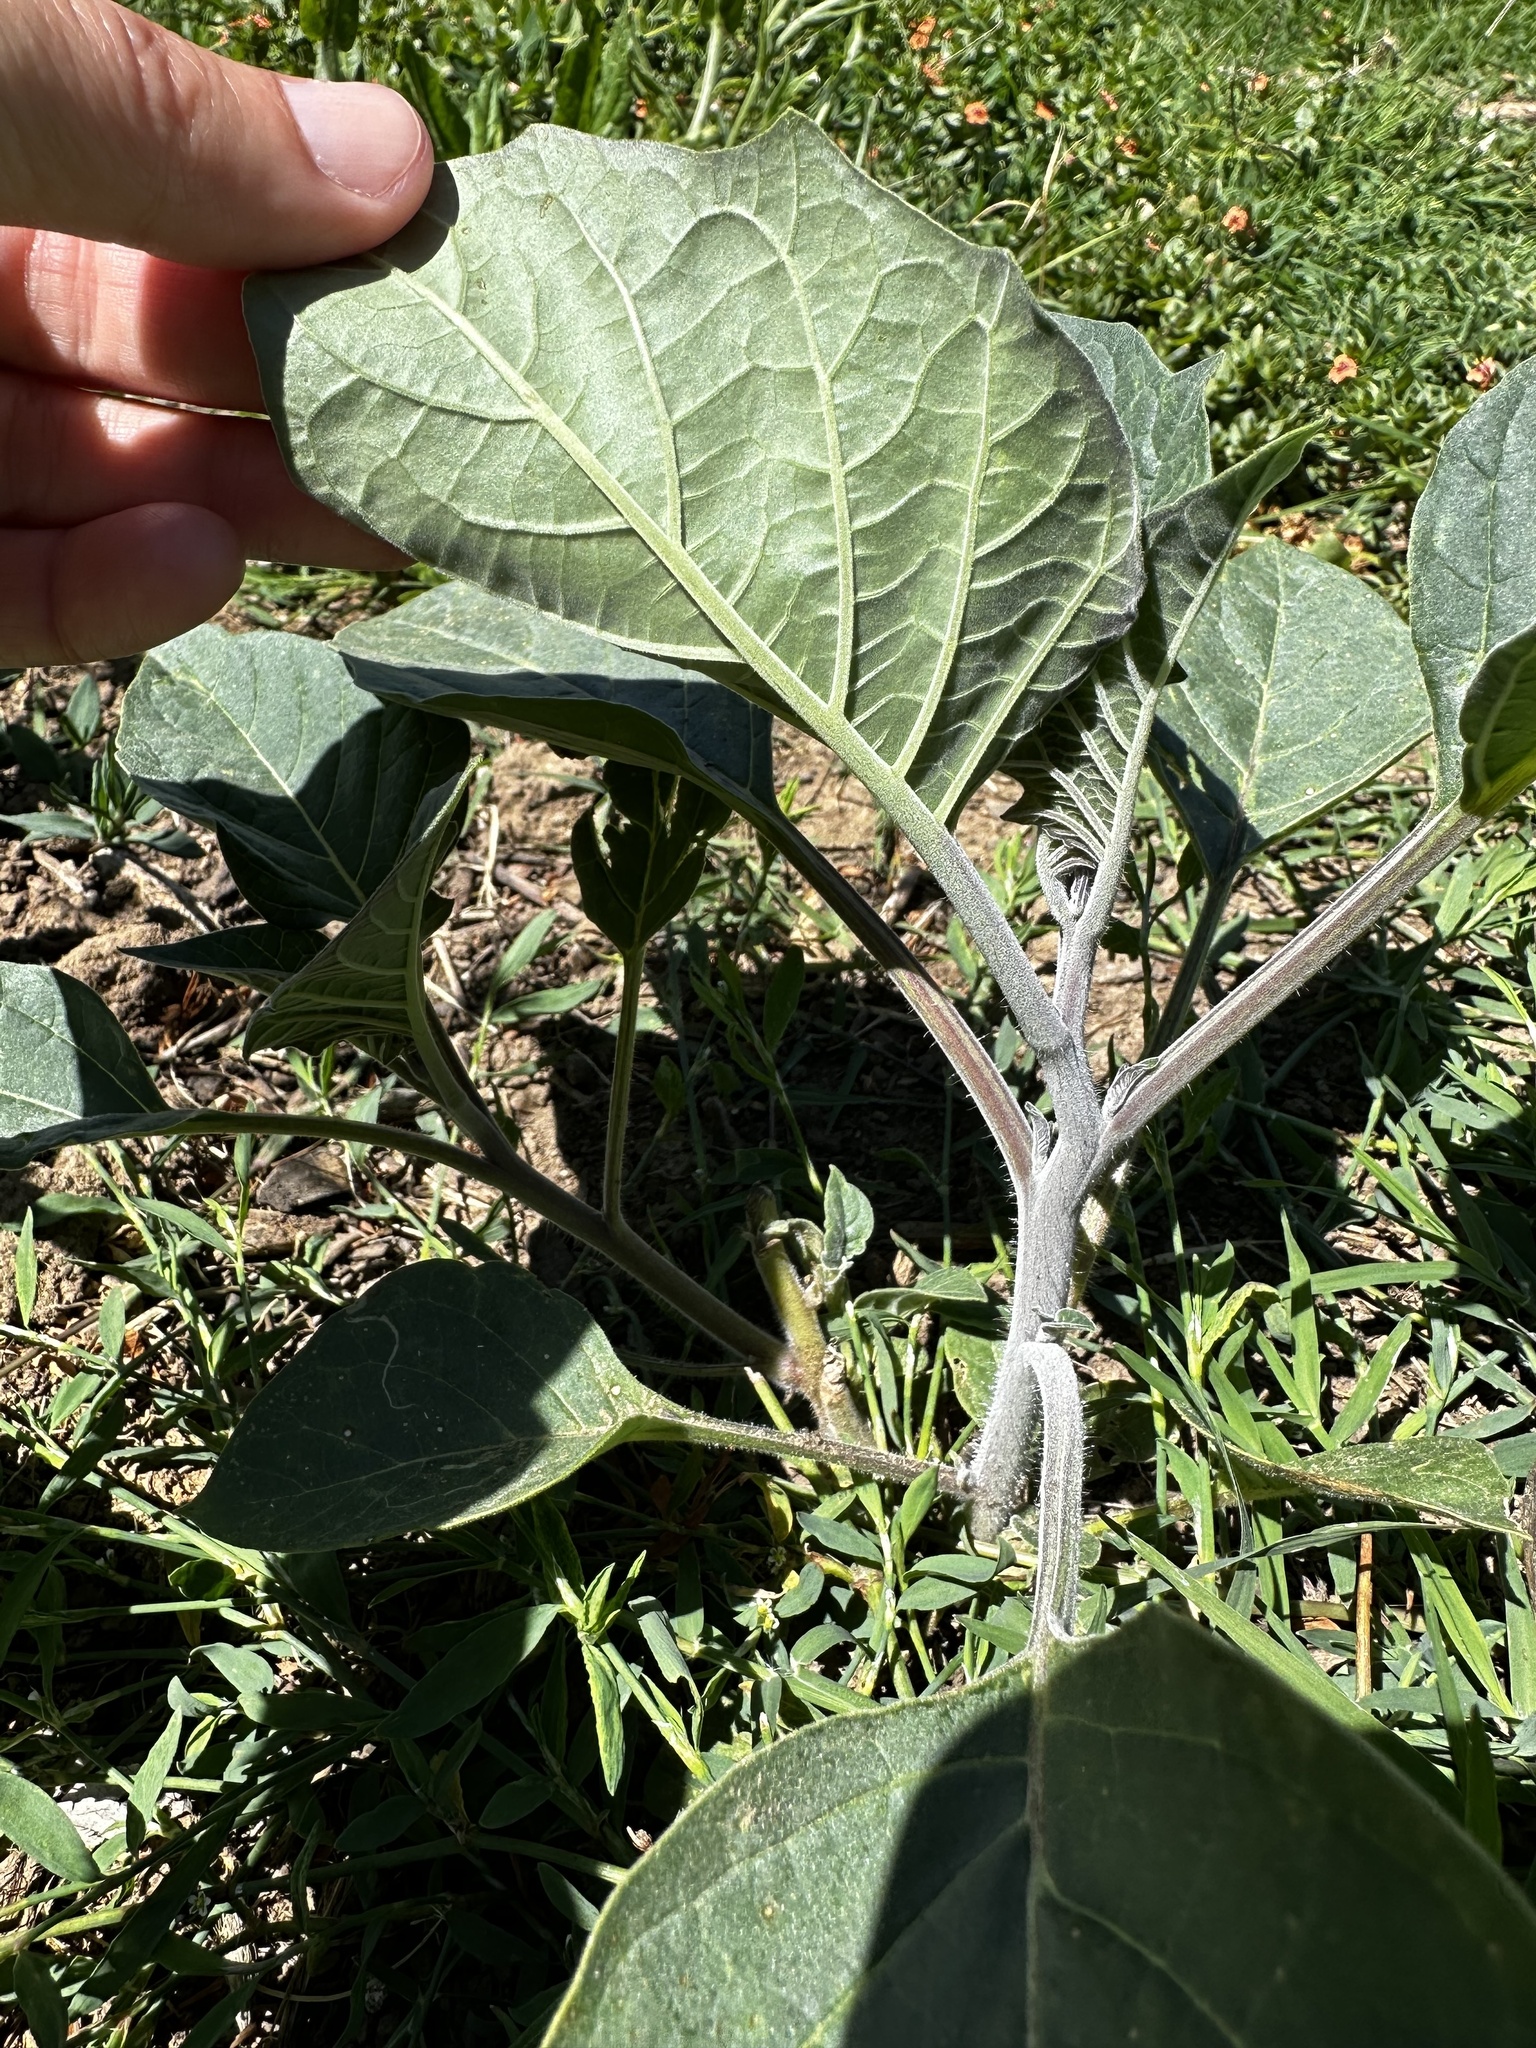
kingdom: Plantae
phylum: Tracheophyta
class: Magnoliopsida
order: Solanales
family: Solanaceae
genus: Datura
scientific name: Datura wrightii
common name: Sacred thorn-apple
